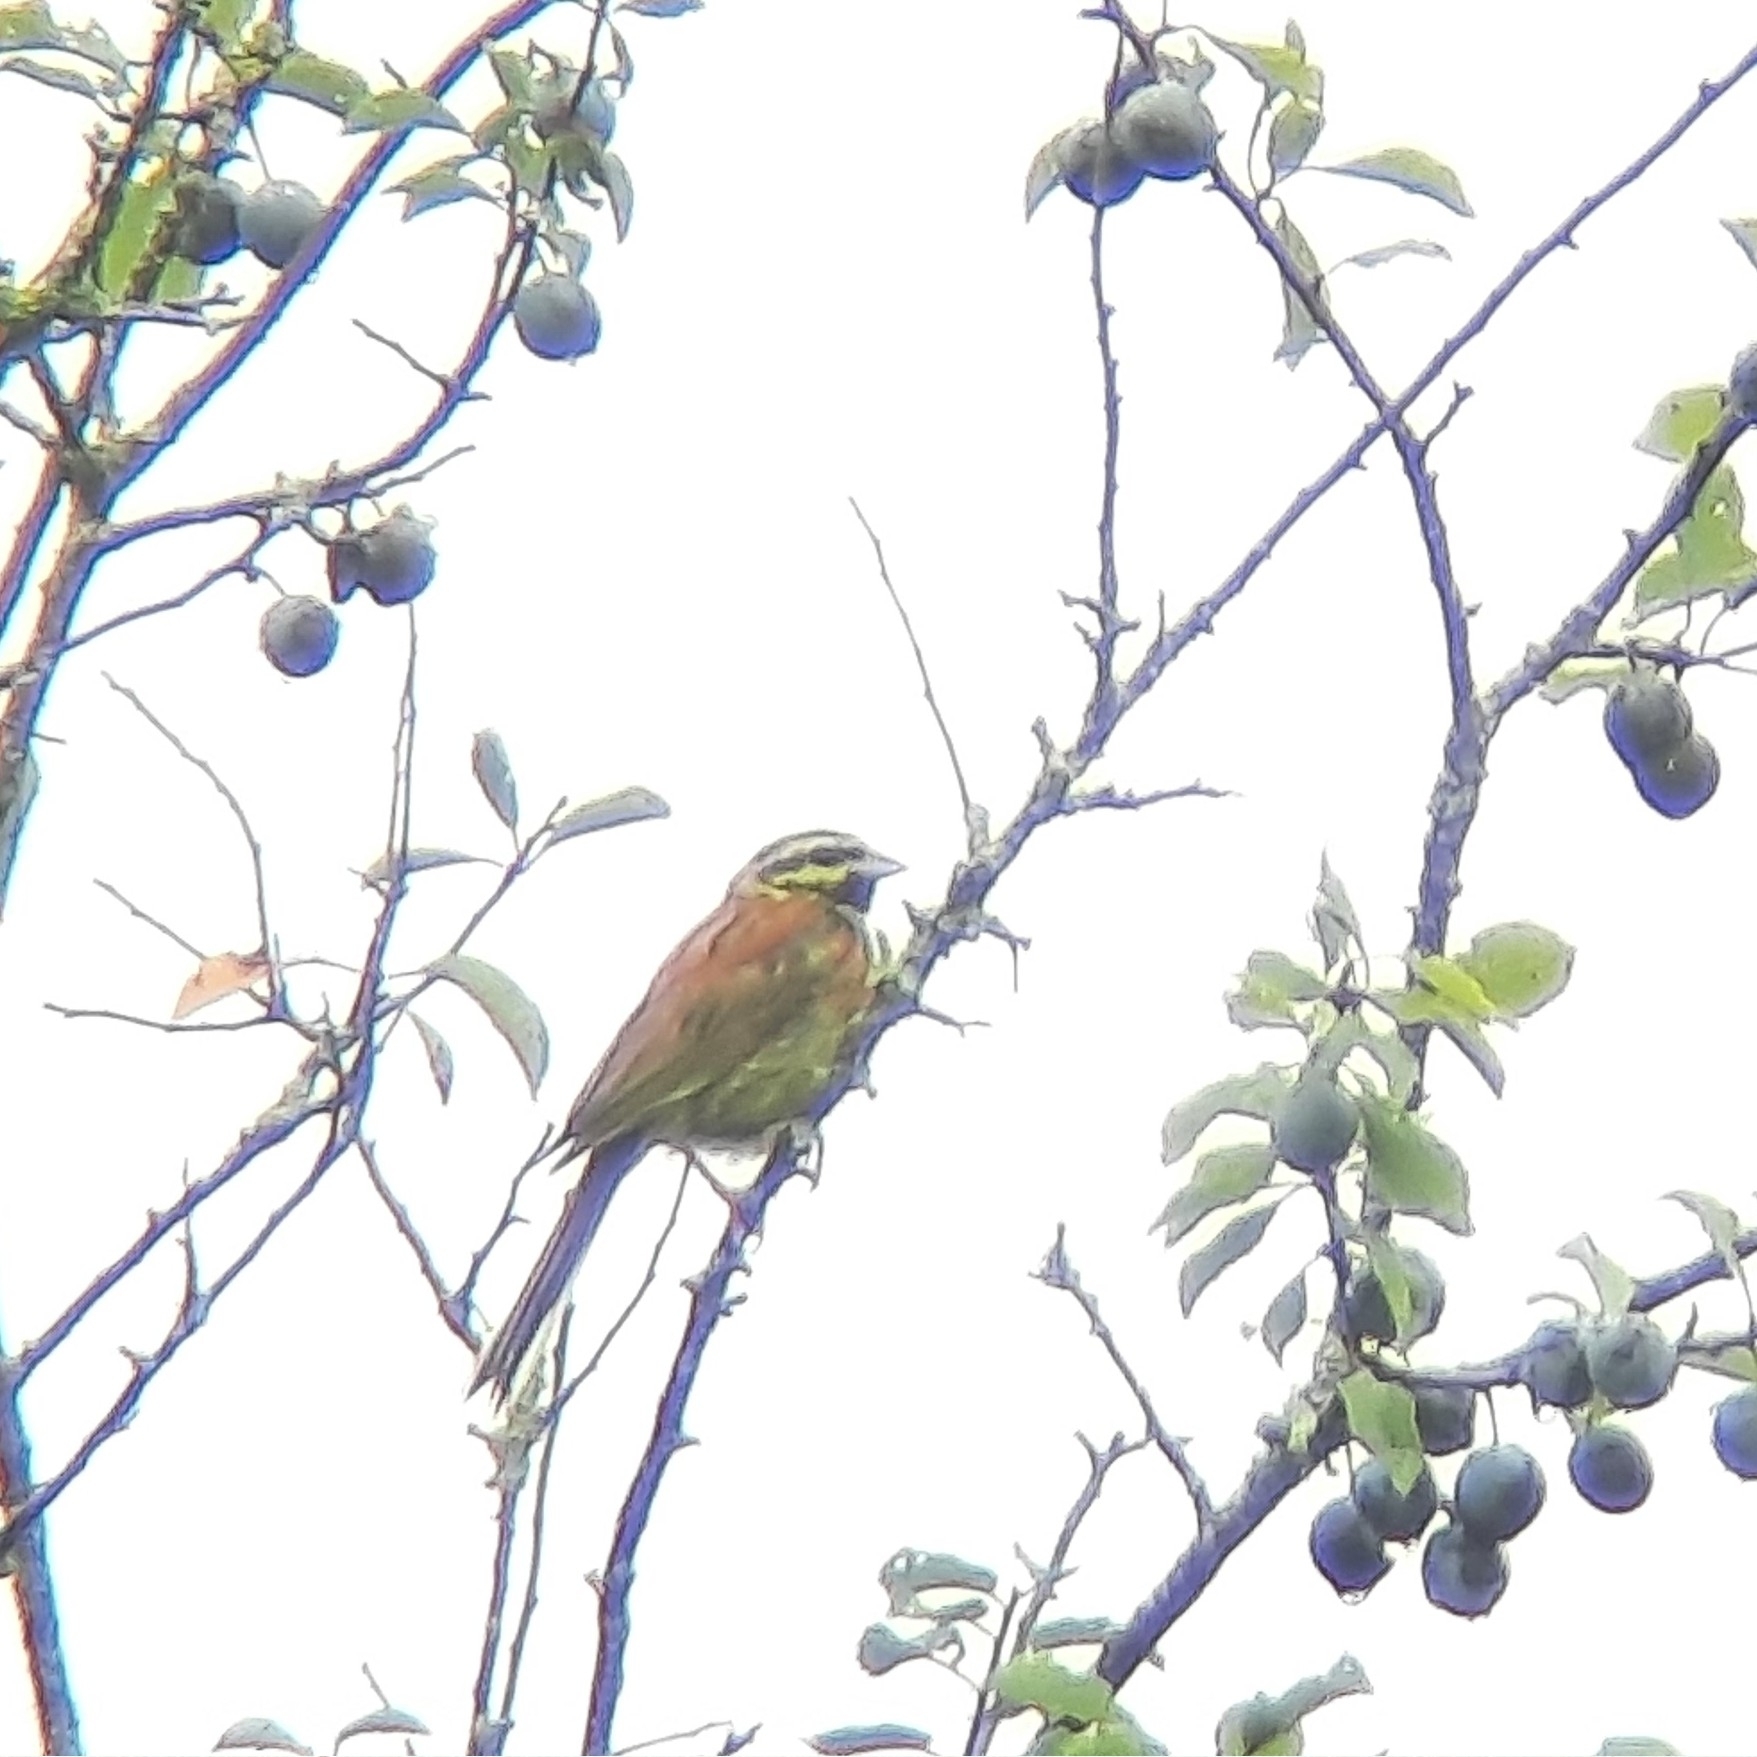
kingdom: Animalia
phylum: Chordata
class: Aves
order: Passeriformes
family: Emberizidae
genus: Emberiza
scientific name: Emberiza cirlus
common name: Cirl bunting
